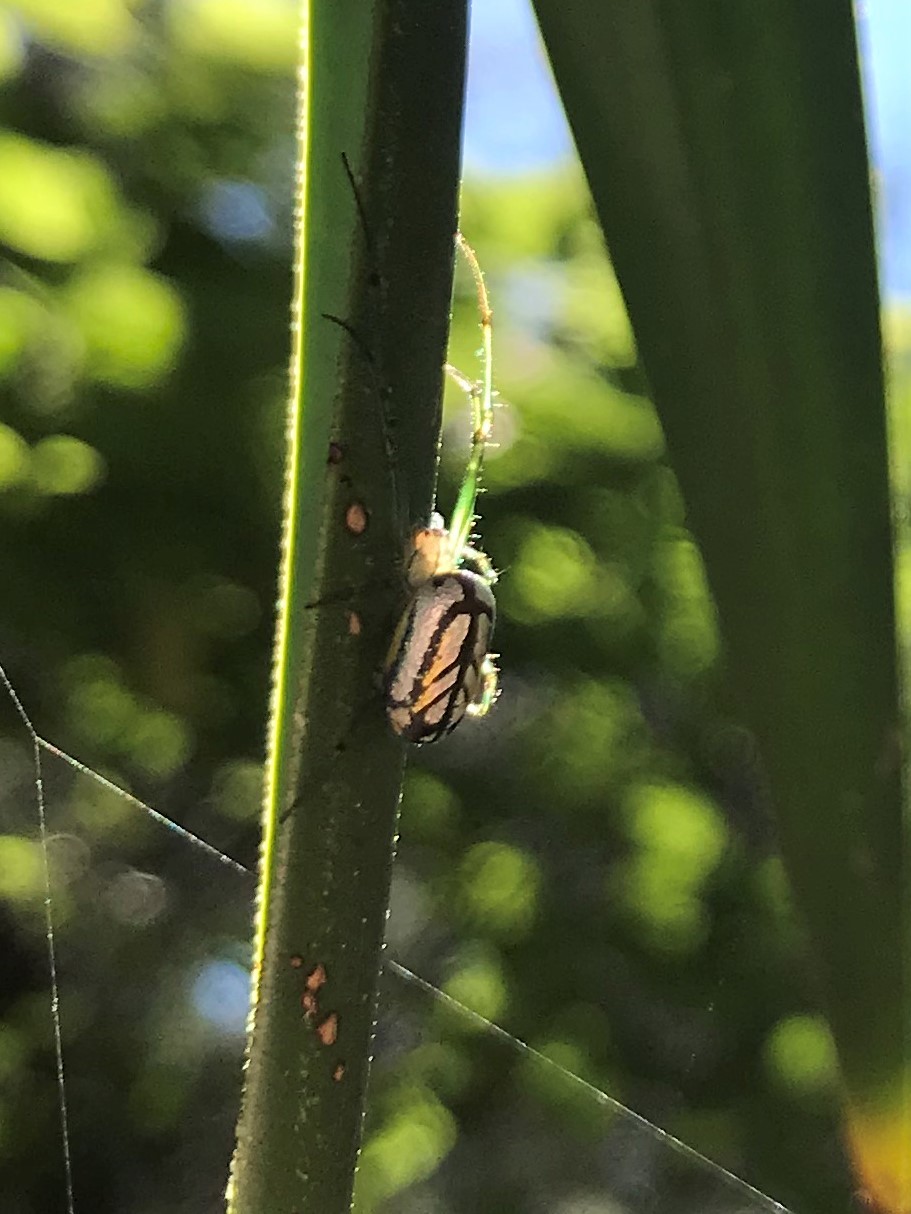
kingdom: Animalia
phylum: Arthropoda
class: Arachnida
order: Araneae
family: Tetragnathidae
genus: Leucauge
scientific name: Leucauge venusta
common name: Longjawed orb weavers
